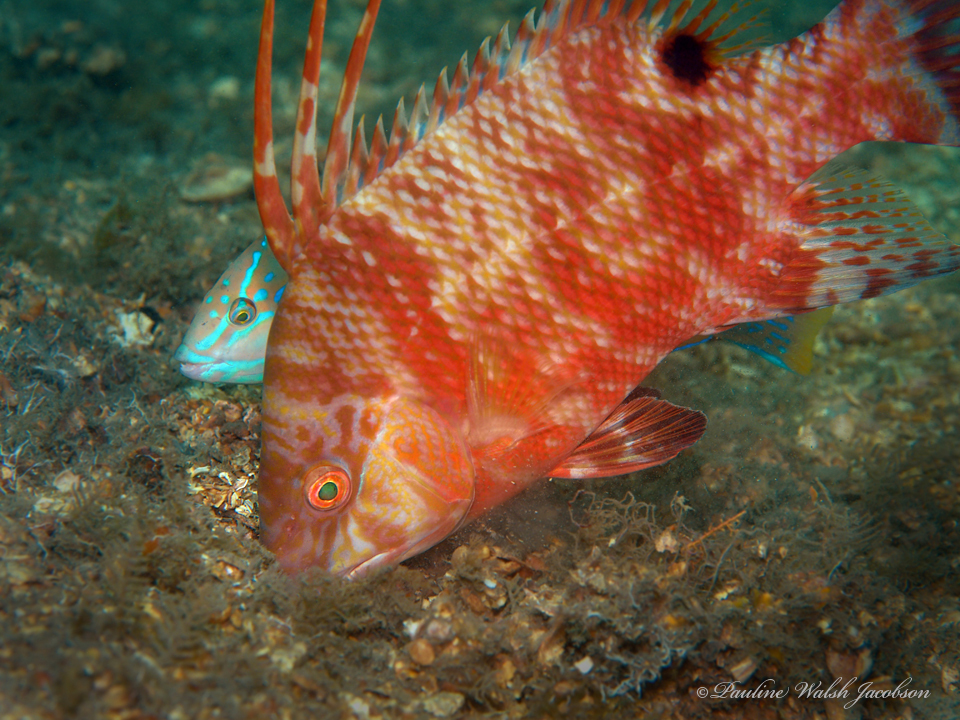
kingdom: Animalia
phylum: Chordata
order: Perciformes
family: Labridae
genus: Lachnolaimus
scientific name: Lachnolaimus maximus
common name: Hogfish
